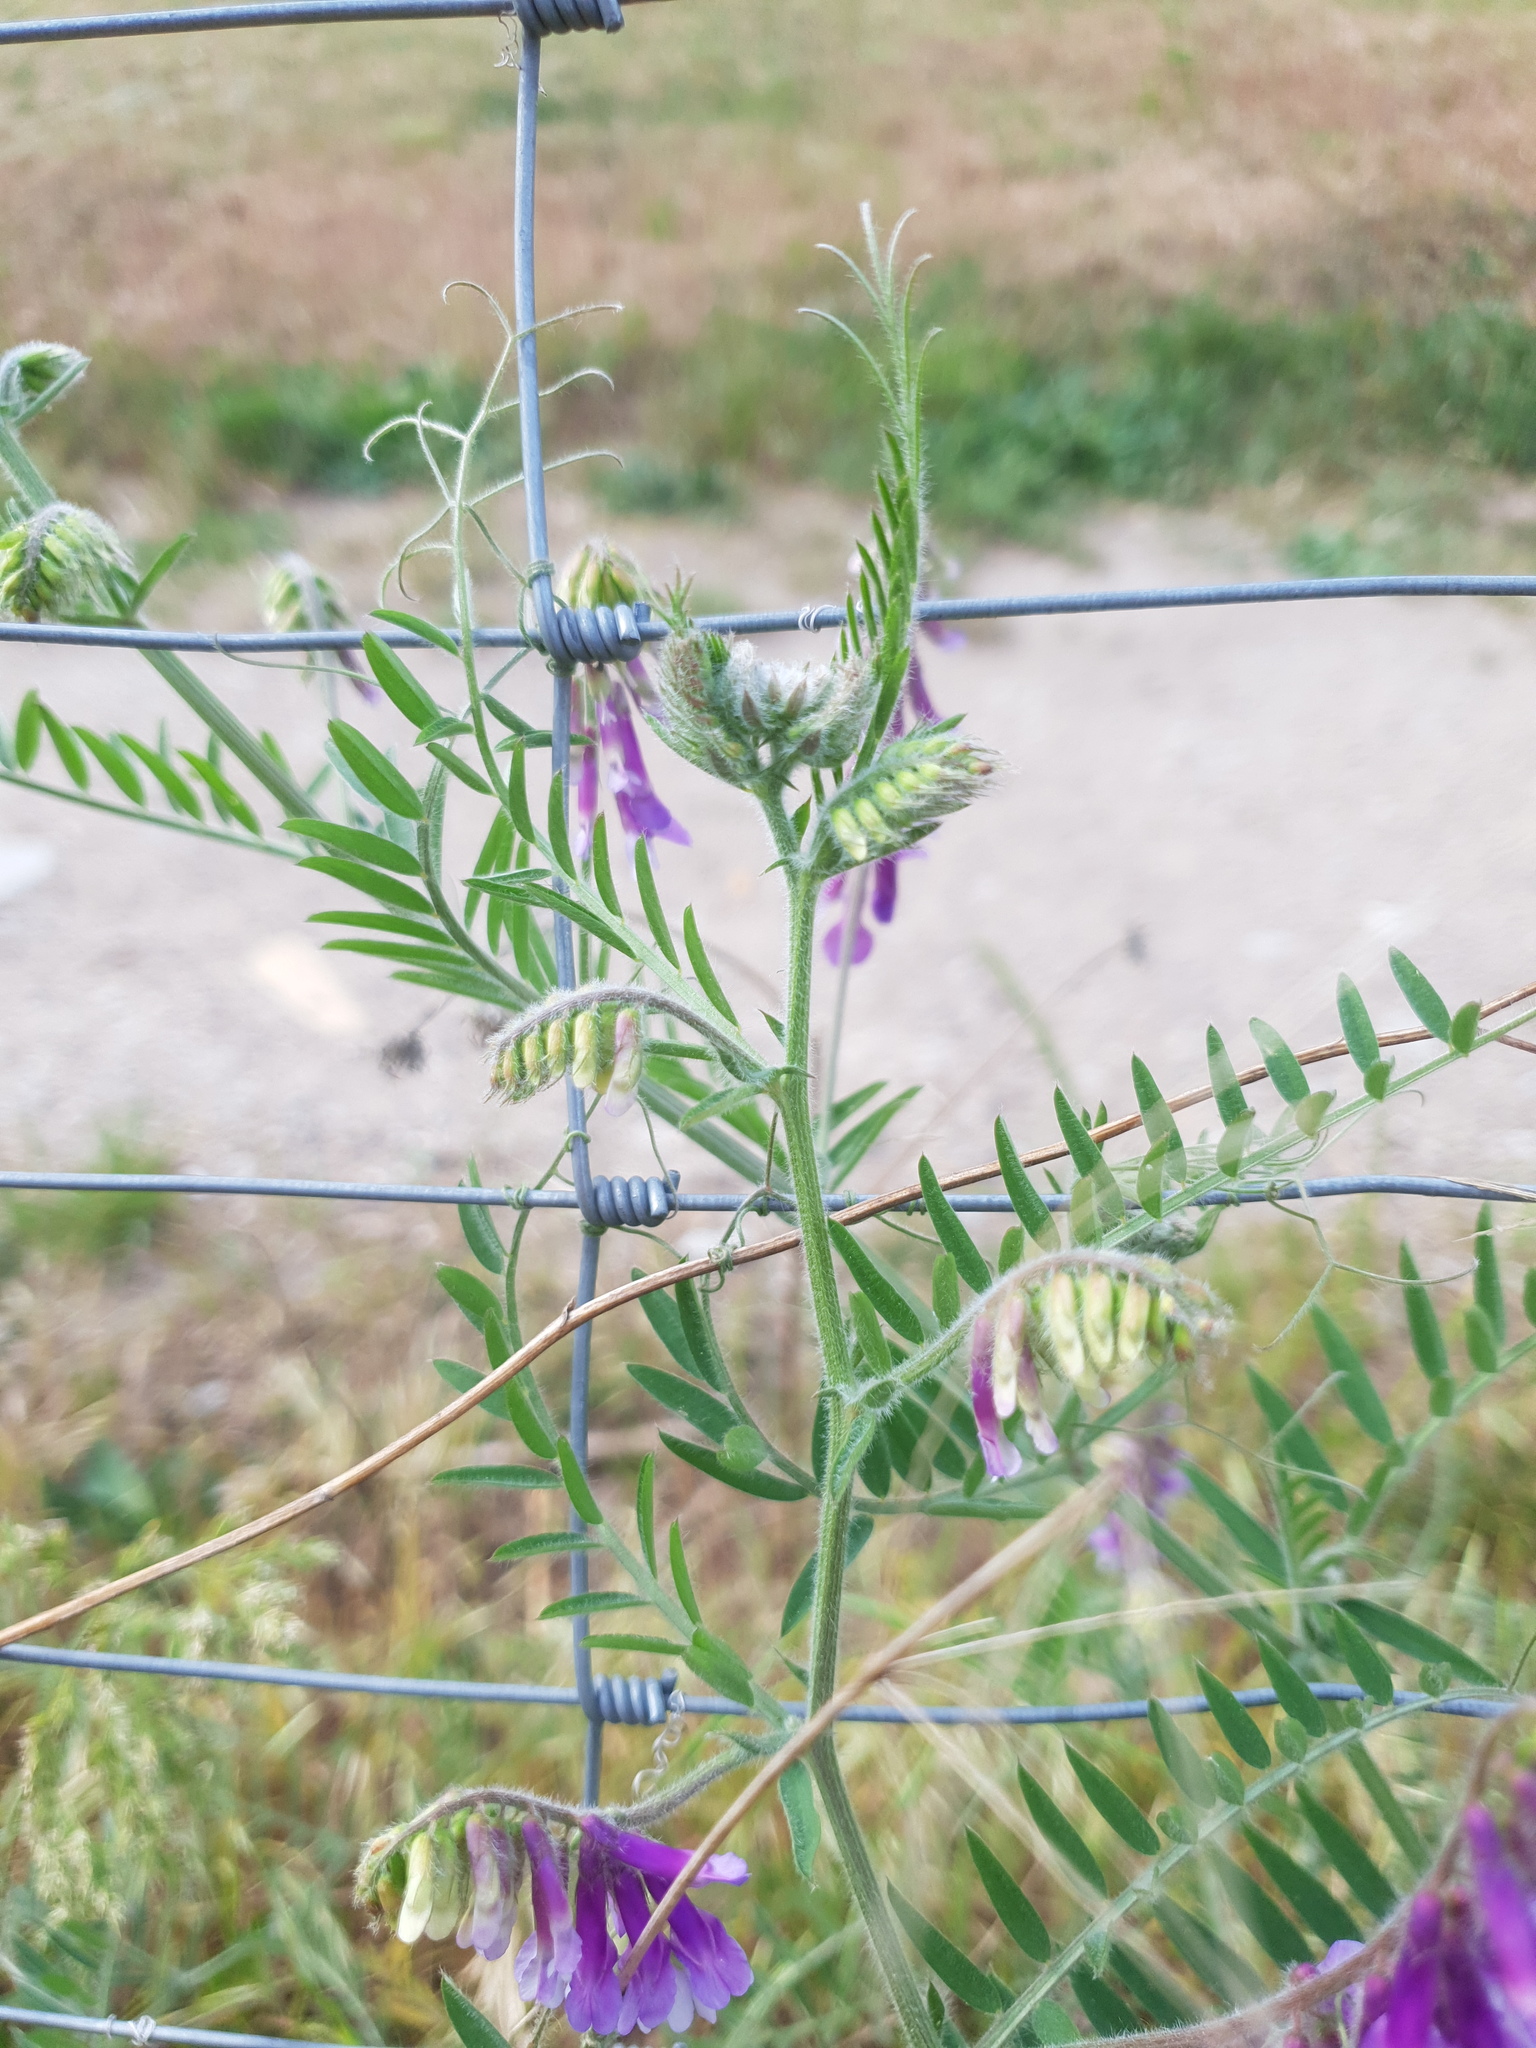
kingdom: Plantae
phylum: Tracheophyta
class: Magnoliopsida
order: Fabales
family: Fabaceae
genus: Vicia
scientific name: Vicia villosa
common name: Fodder vetch
